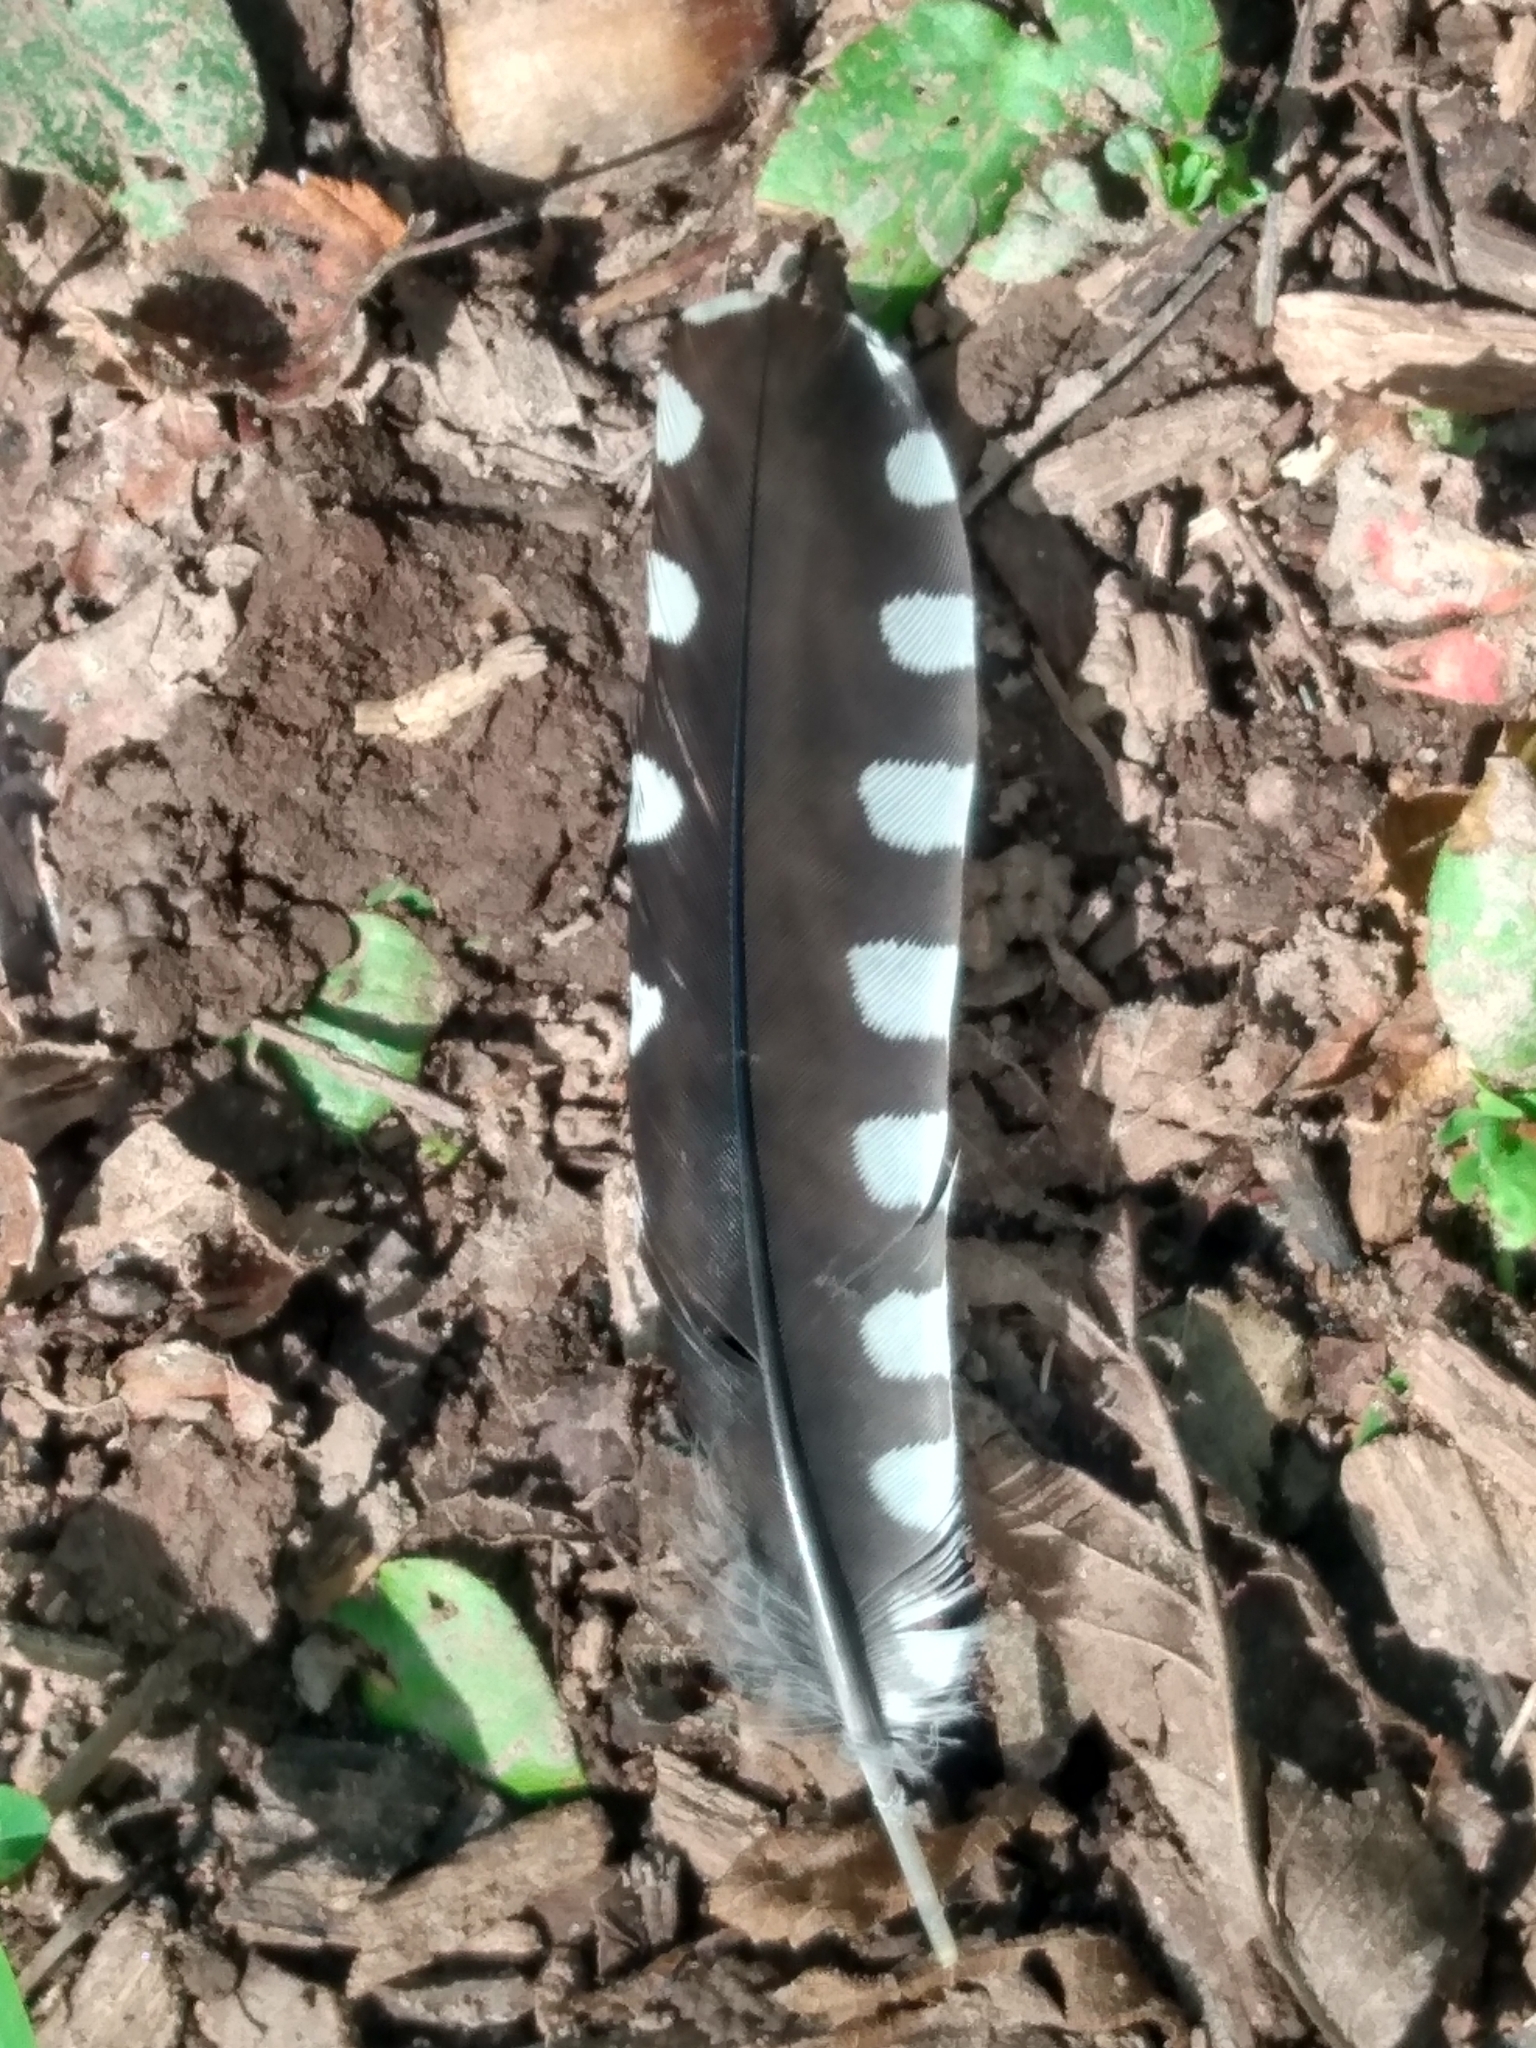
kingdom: Animalia
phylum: Chordata
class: Aves
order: Piciformes
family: Picidae
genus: Melanerpes
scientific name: Melanerpes carolinus
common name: Red-bellied woodpecker
